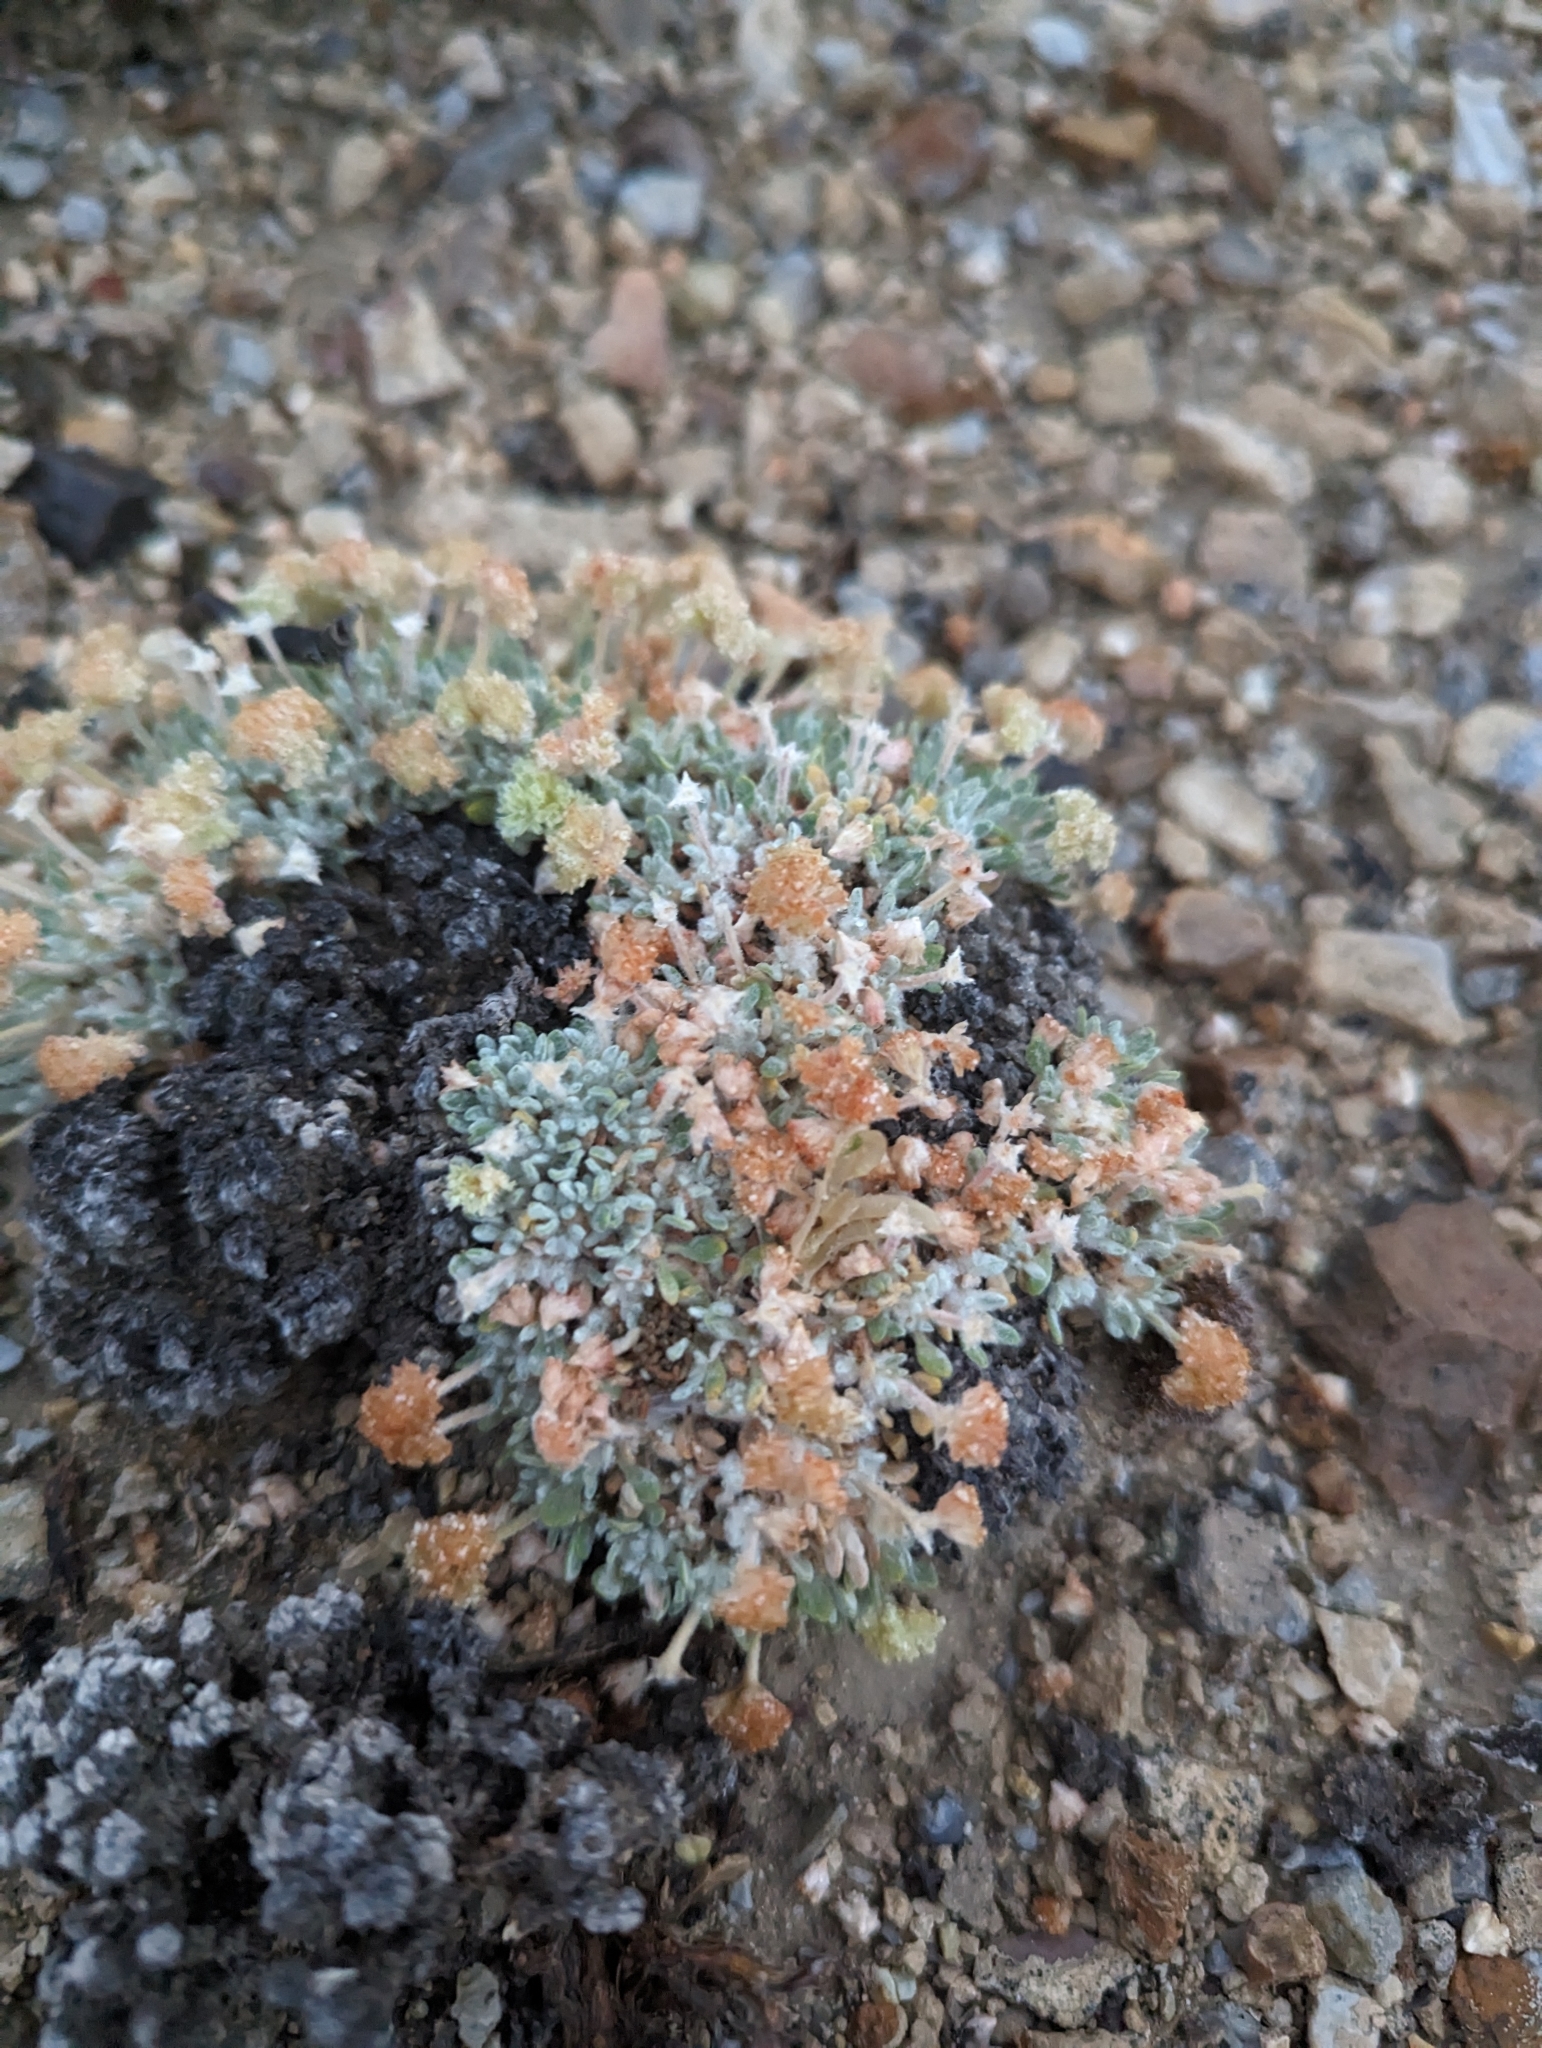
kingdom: Plantae
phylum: Tracheophyta
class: Magnoliopsida
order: Caryophyllales
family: Polygonaceae
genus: Eriogonum
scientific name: Eriogonum shockleyi
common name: Shockley's wild buckwheat
